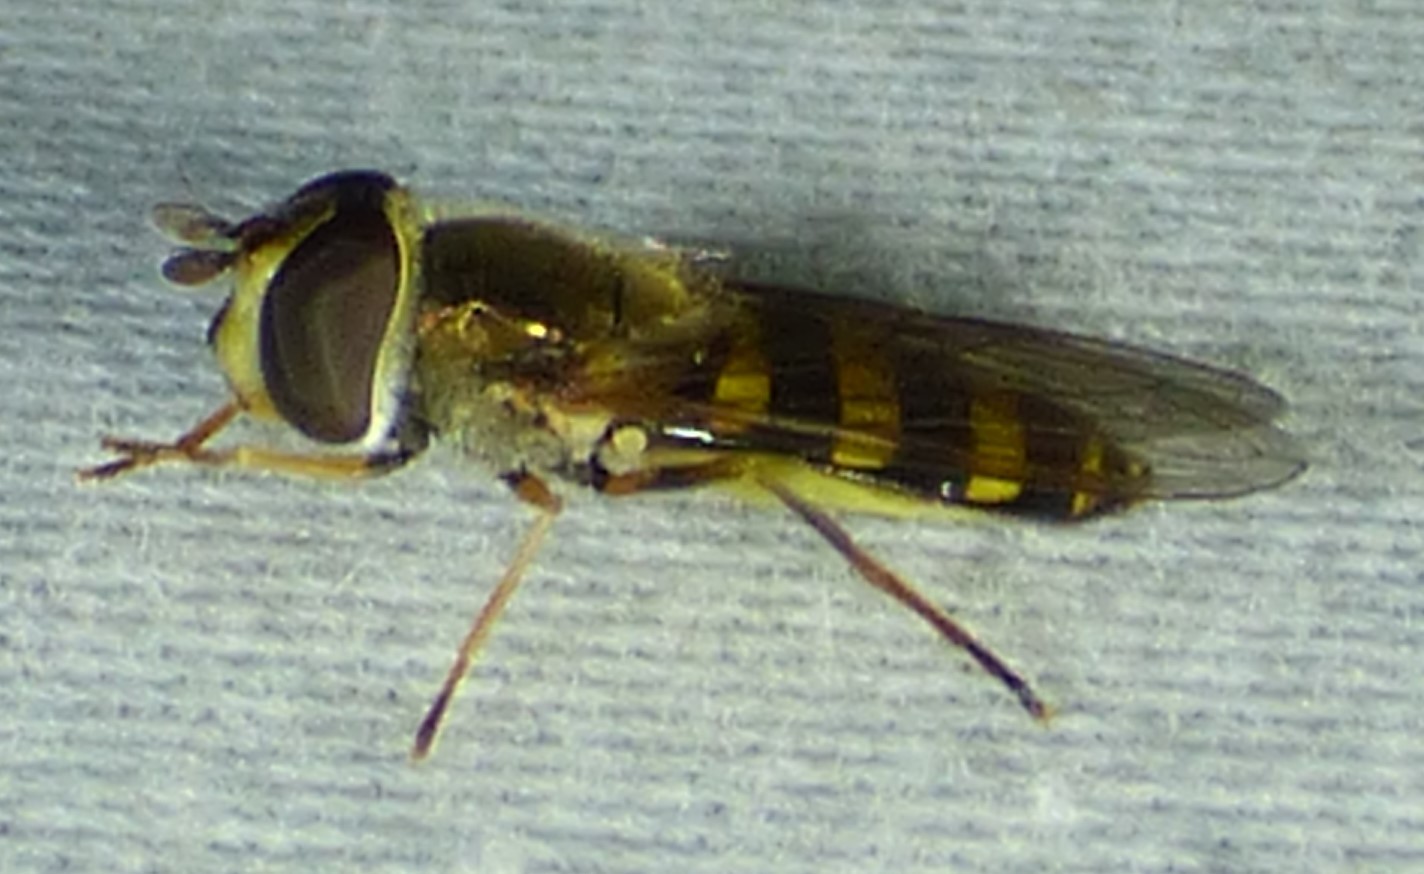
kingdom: Animalia
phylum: Arthropoda
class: Insecta
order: Diptera
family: Syrphidae
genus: Eupeodes
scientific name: Eupeodes
